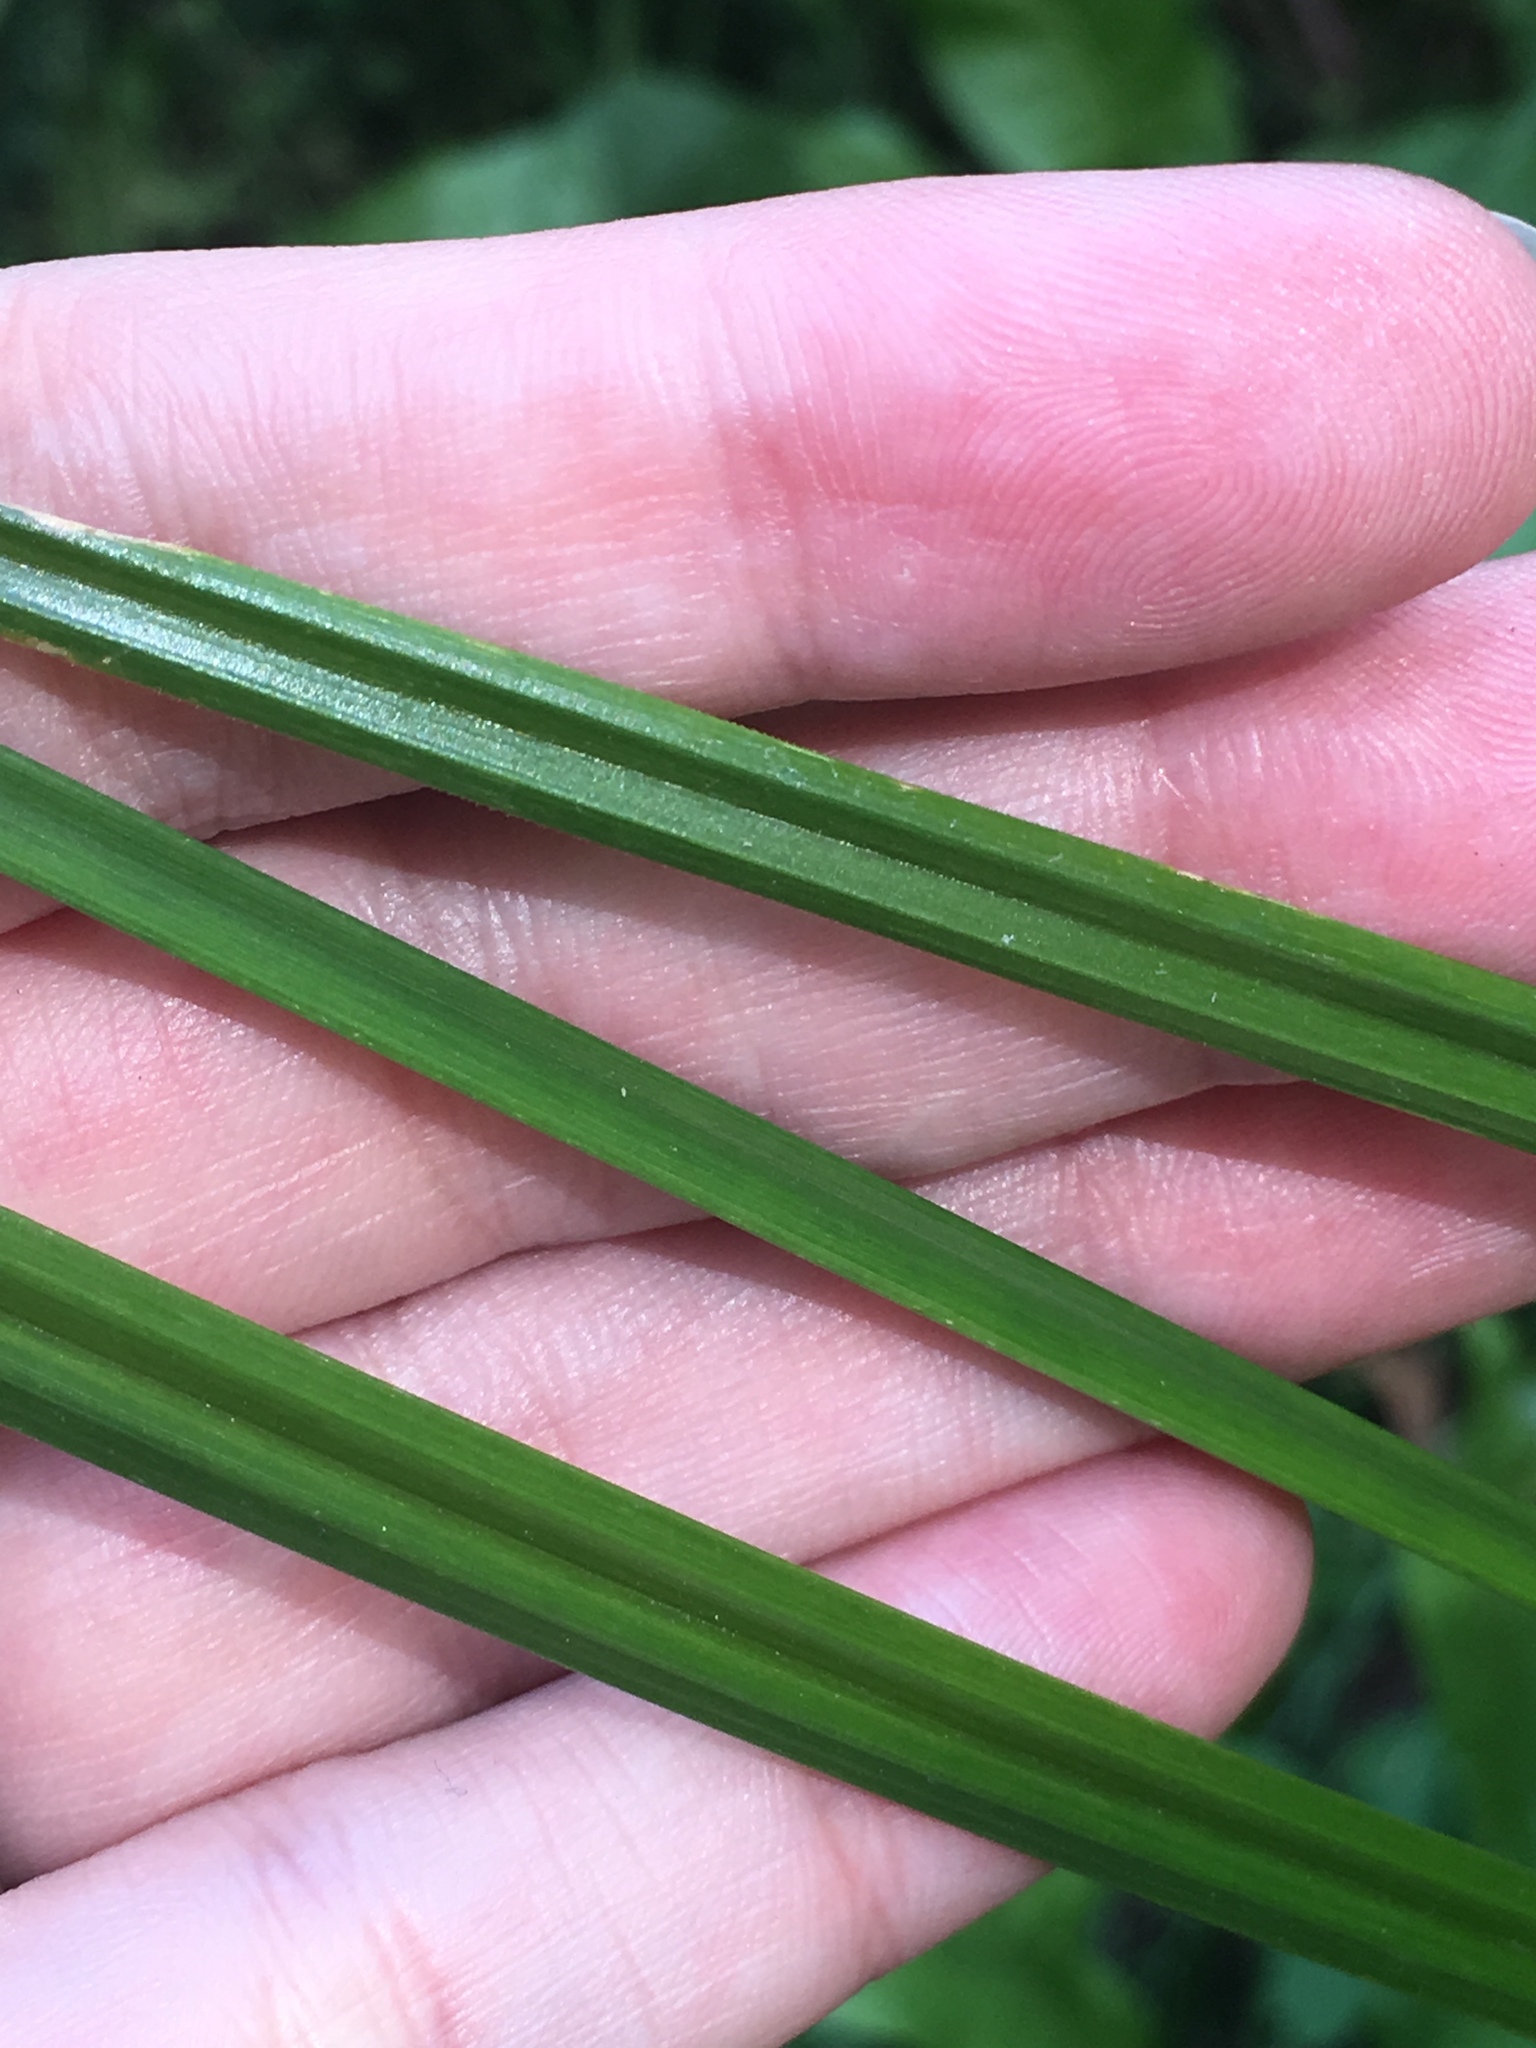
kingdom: Plantae
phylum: Tracheophyta
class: Liliopsida
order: Poales
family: Cyperaceae
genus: Cyperus
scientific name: Cyperus esculentus
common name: Yellow nutsedge
